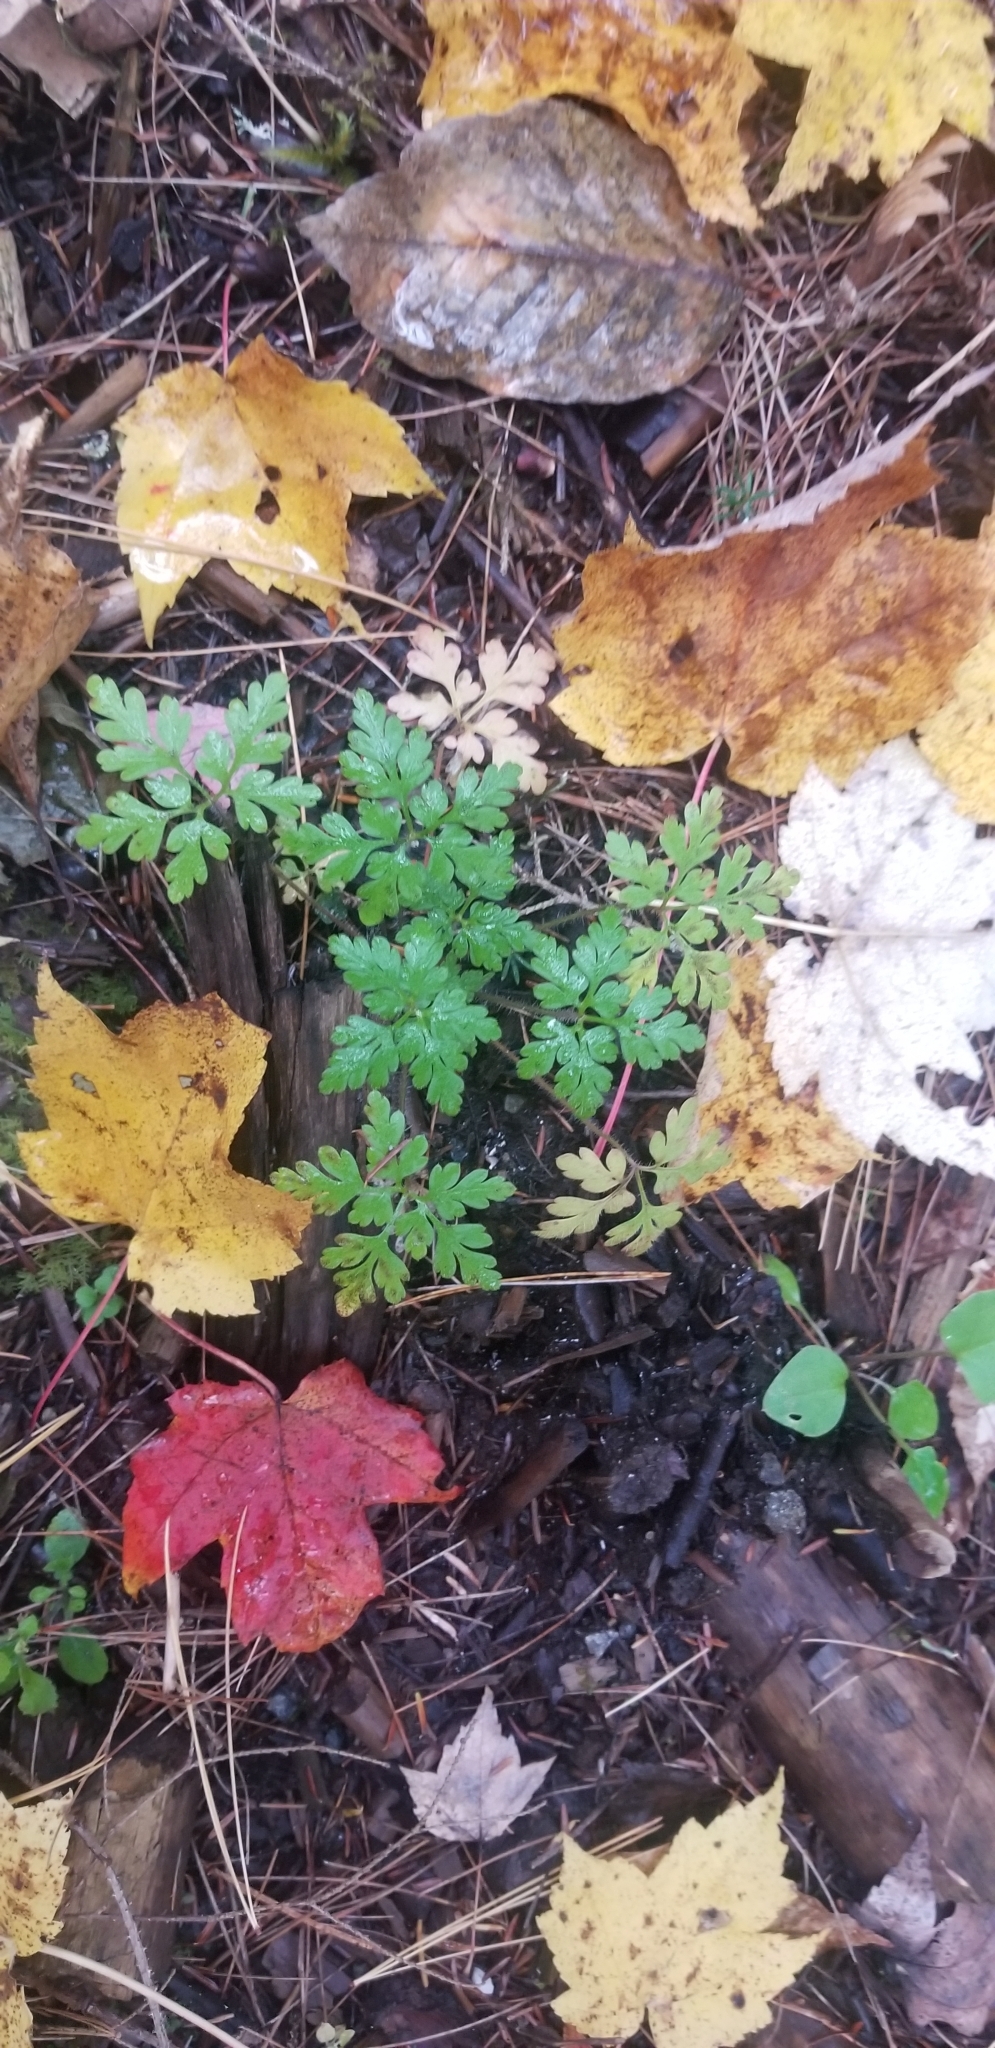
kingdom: Plantae
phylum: Tracheophyta
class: Magnoliopsida
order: Geraniales
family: Geraniaceae
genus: Geranium
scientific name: Geranium robertianum
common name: Herb-robert
